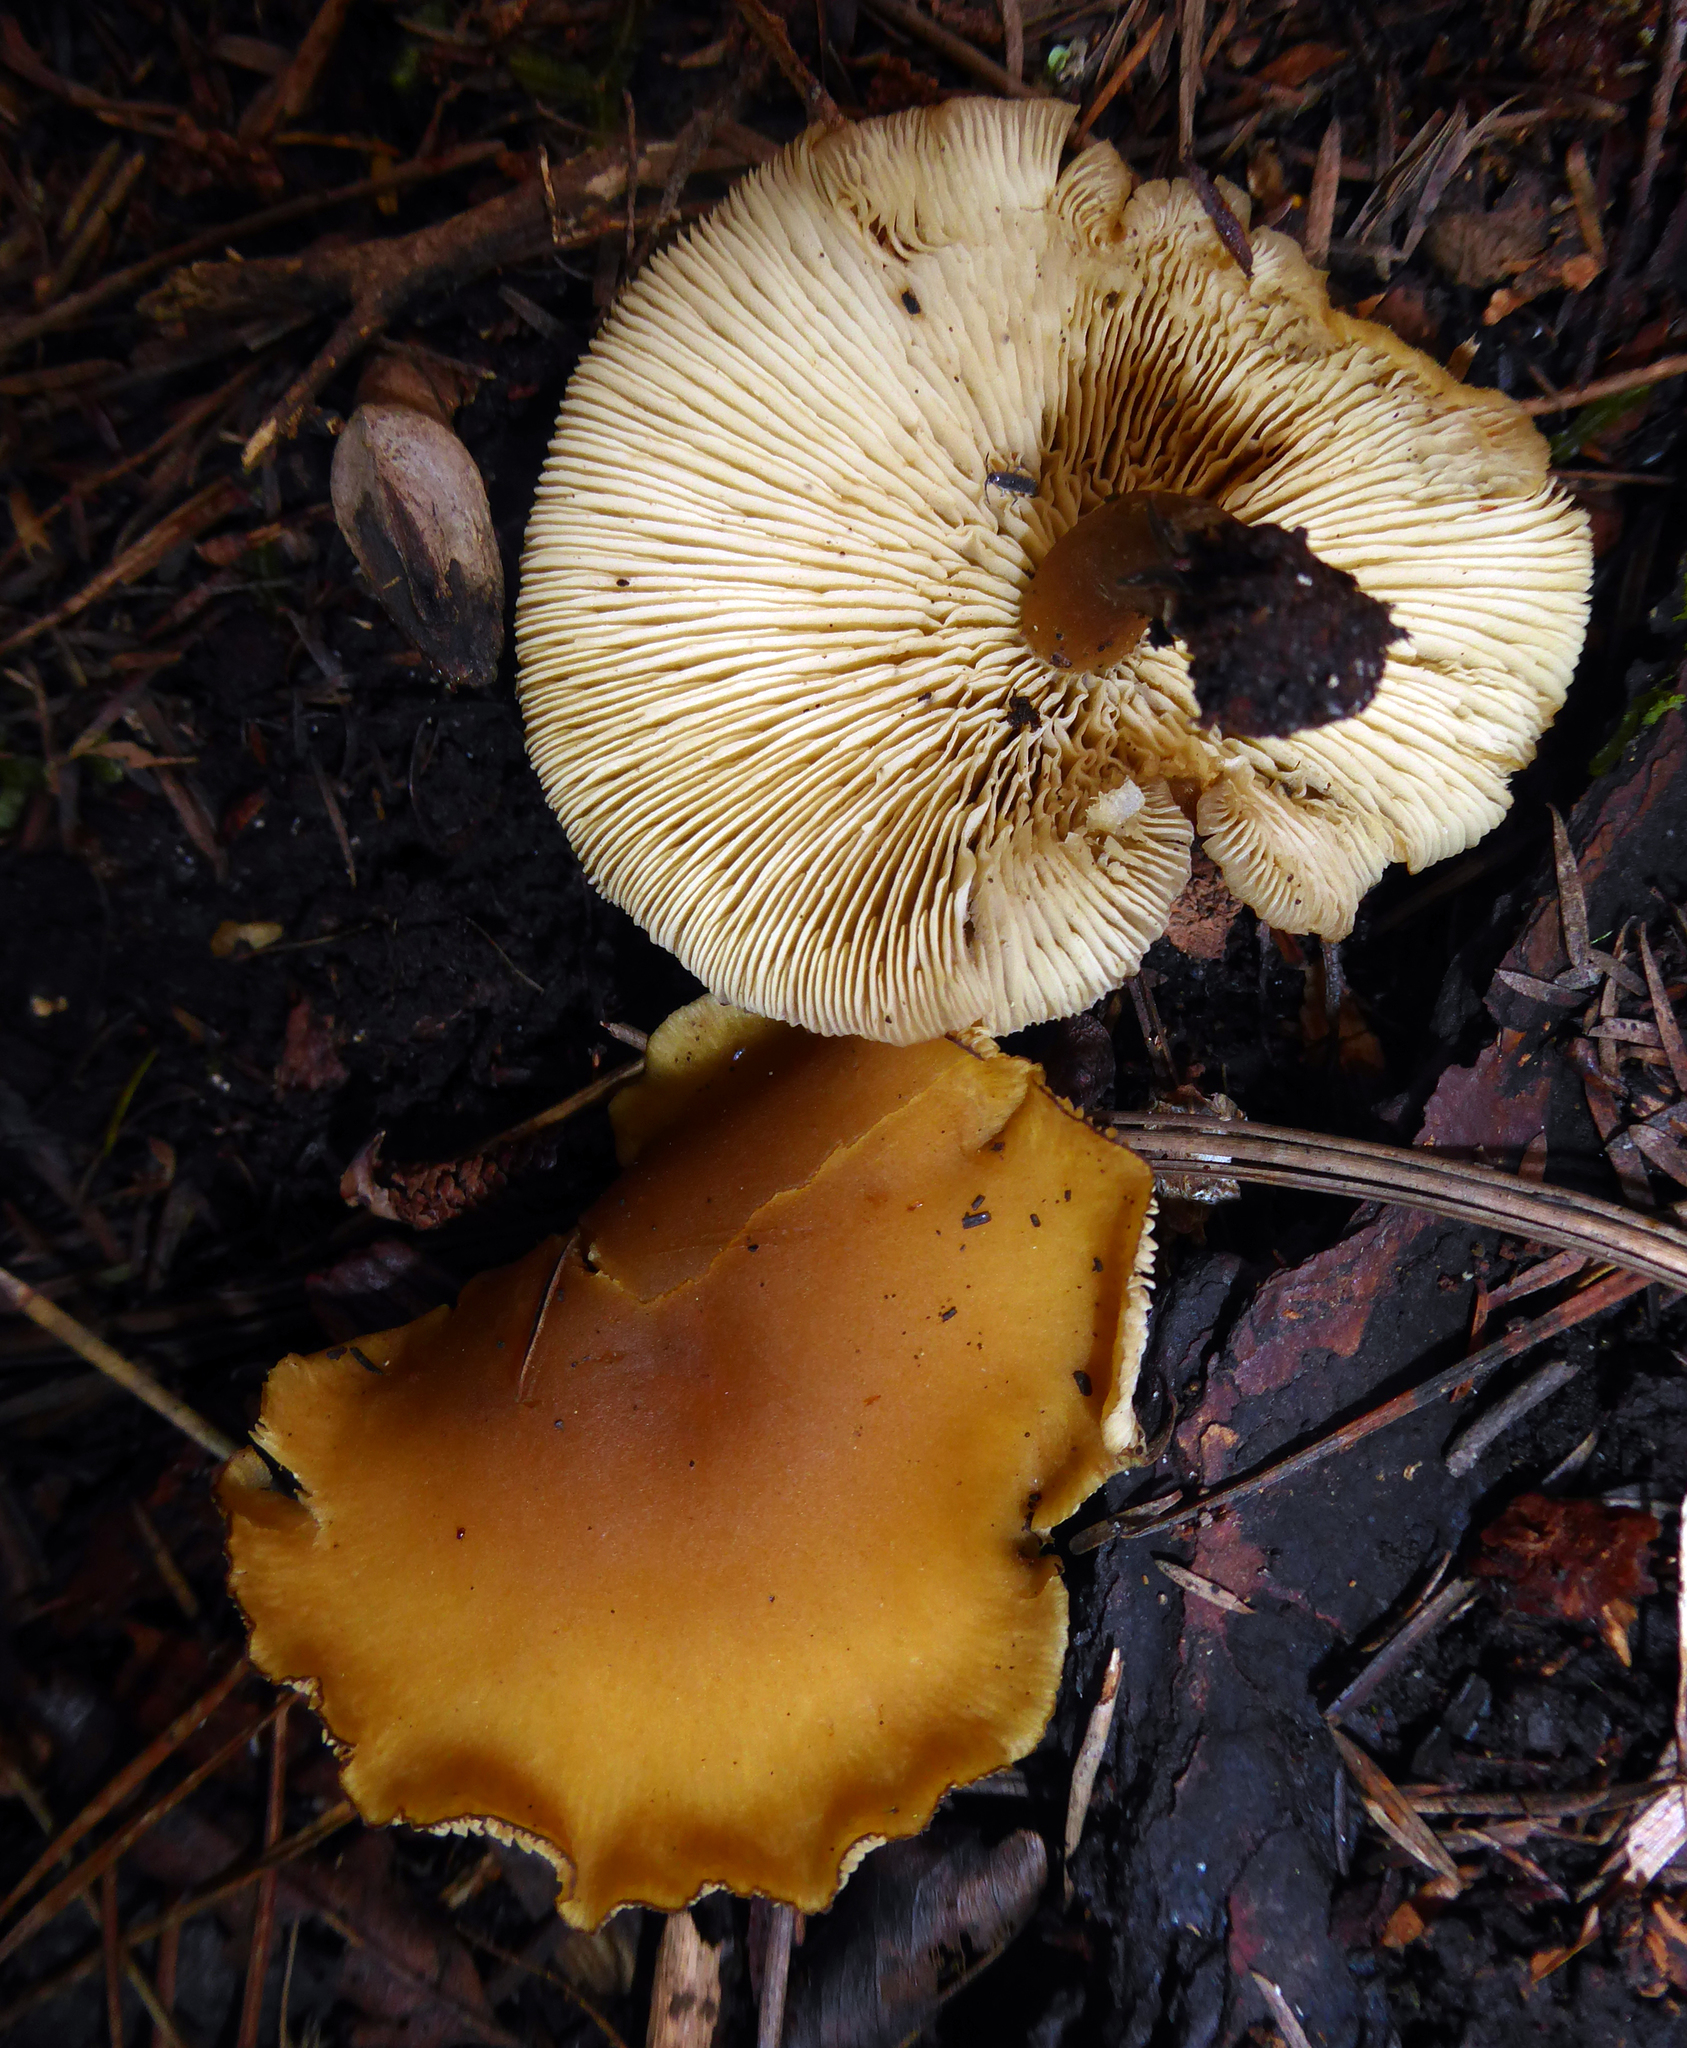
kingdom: Fungi
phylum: Basidiomycota
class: Agaricomycetes
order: Agaricales
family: Callistosporiaceae
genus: Callistosporium
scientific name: Callistosporium
